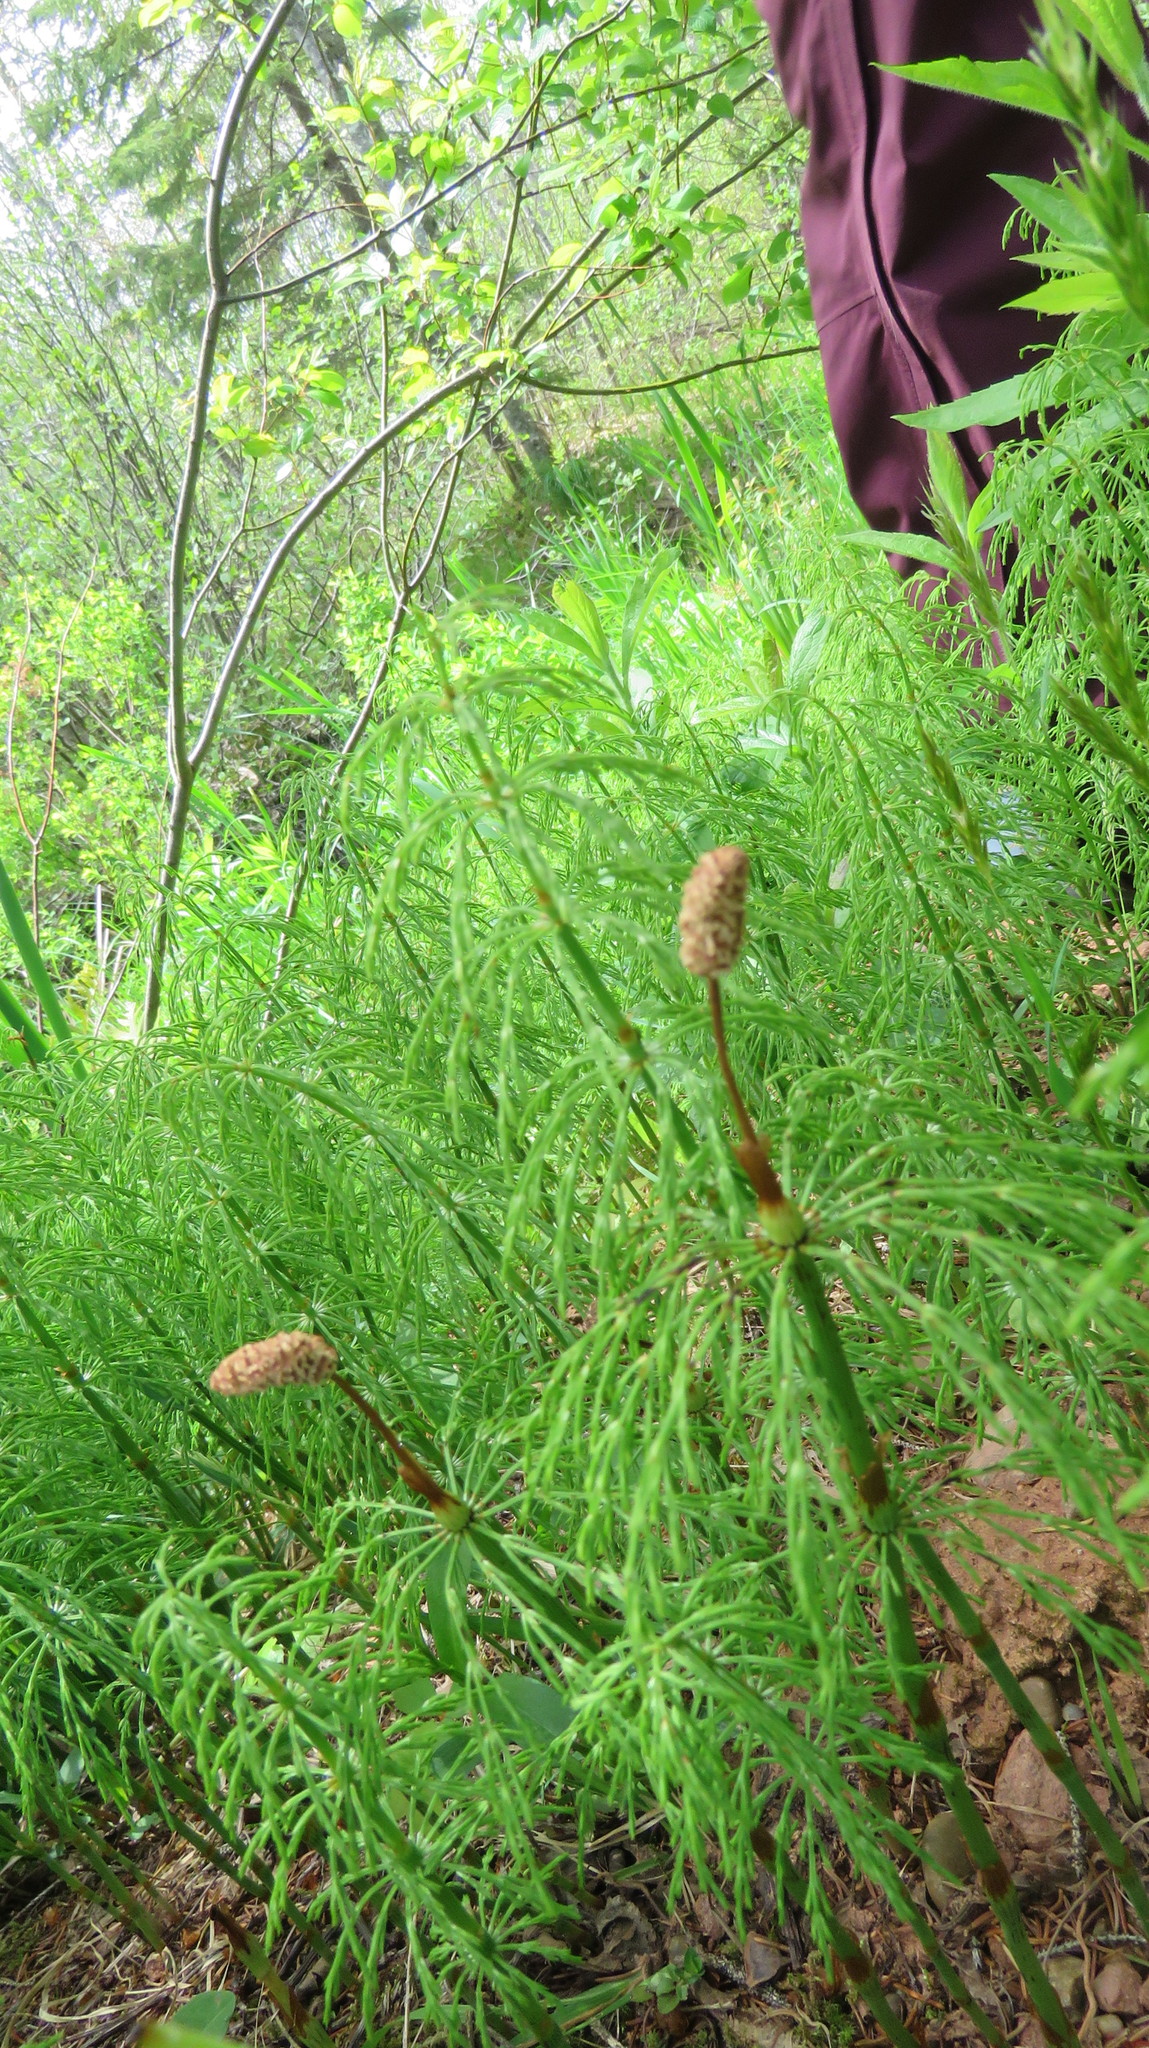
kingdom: Plantae
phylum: Tracheophyta
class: Polypodiopsida
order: Equisetales
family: Equisetaceae
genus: Equisetum
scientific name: Equisetum sylvaticum
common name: Wood horsetail
